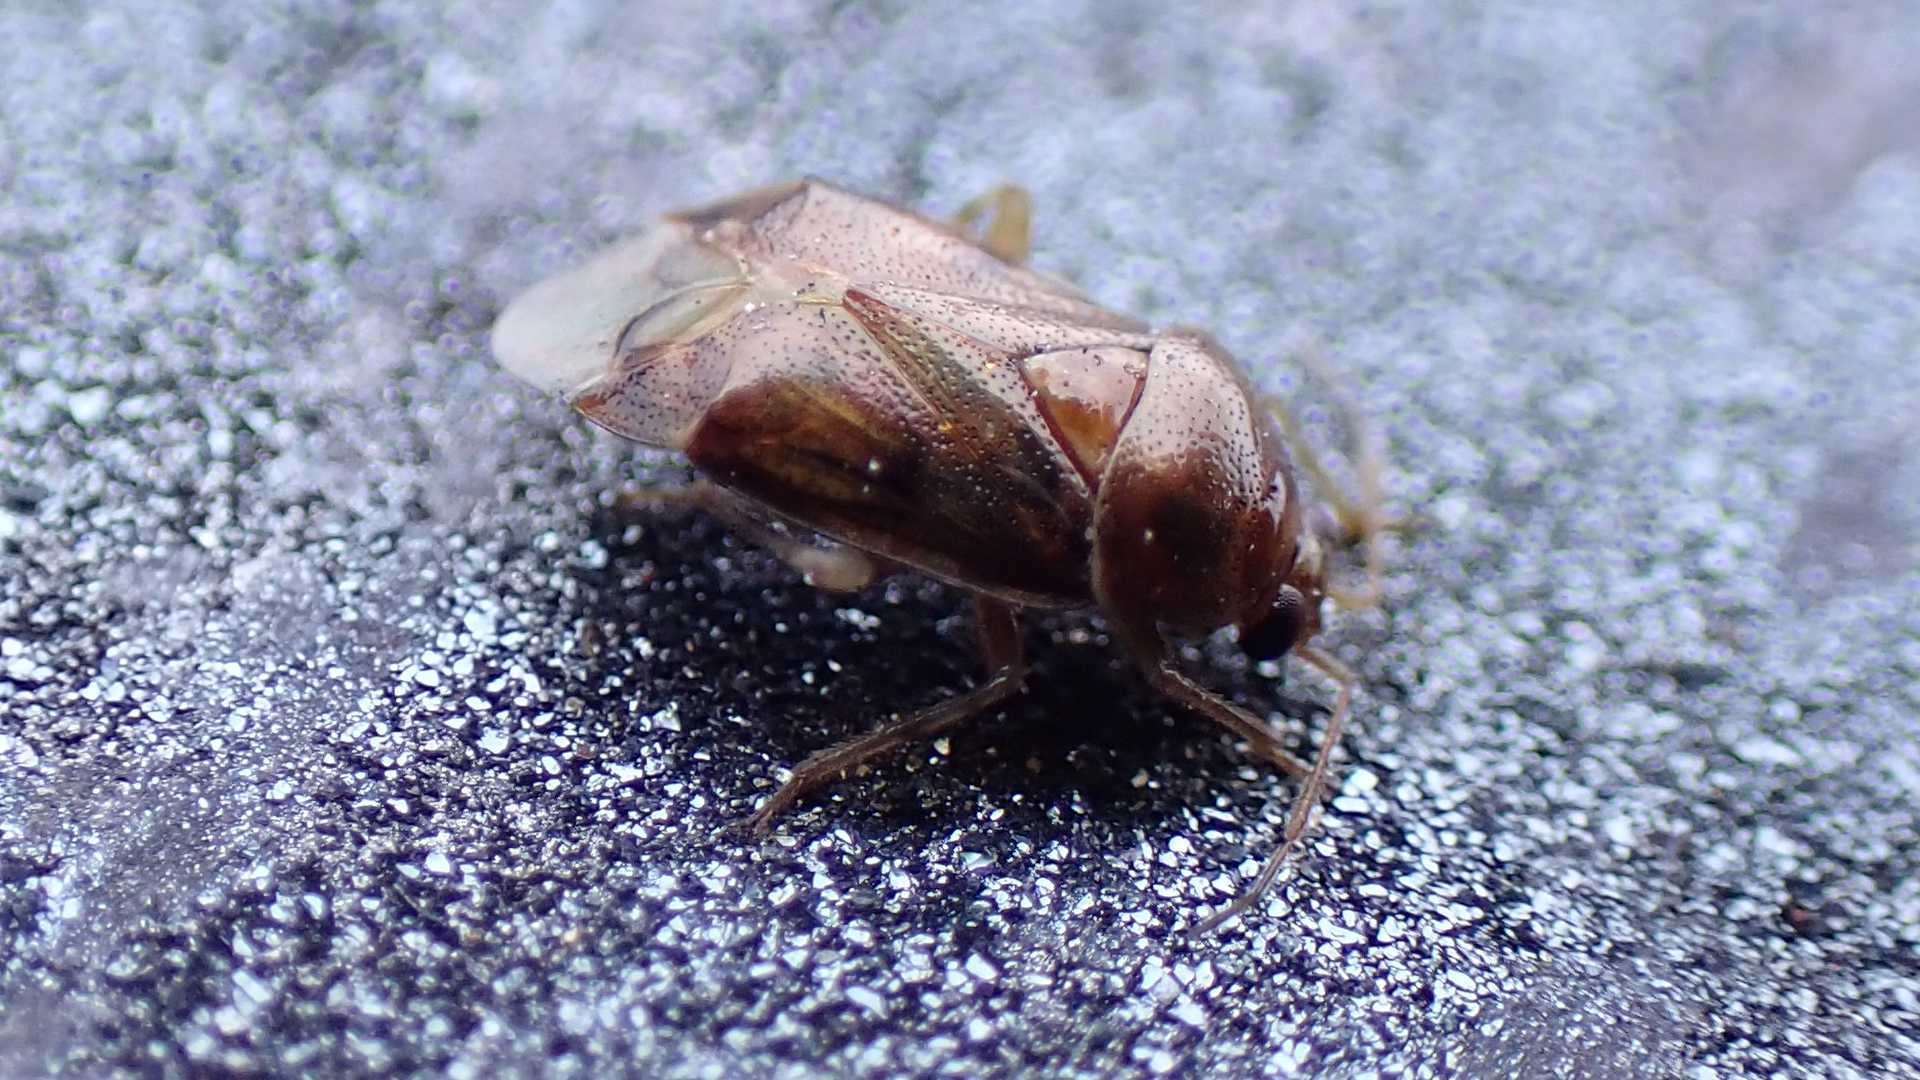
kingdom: Animalia
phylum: Arthropoda
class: Insecta
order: Hemiptera
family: Miridae
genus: Deraeocoris
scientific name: Deraeocoris lutescens
